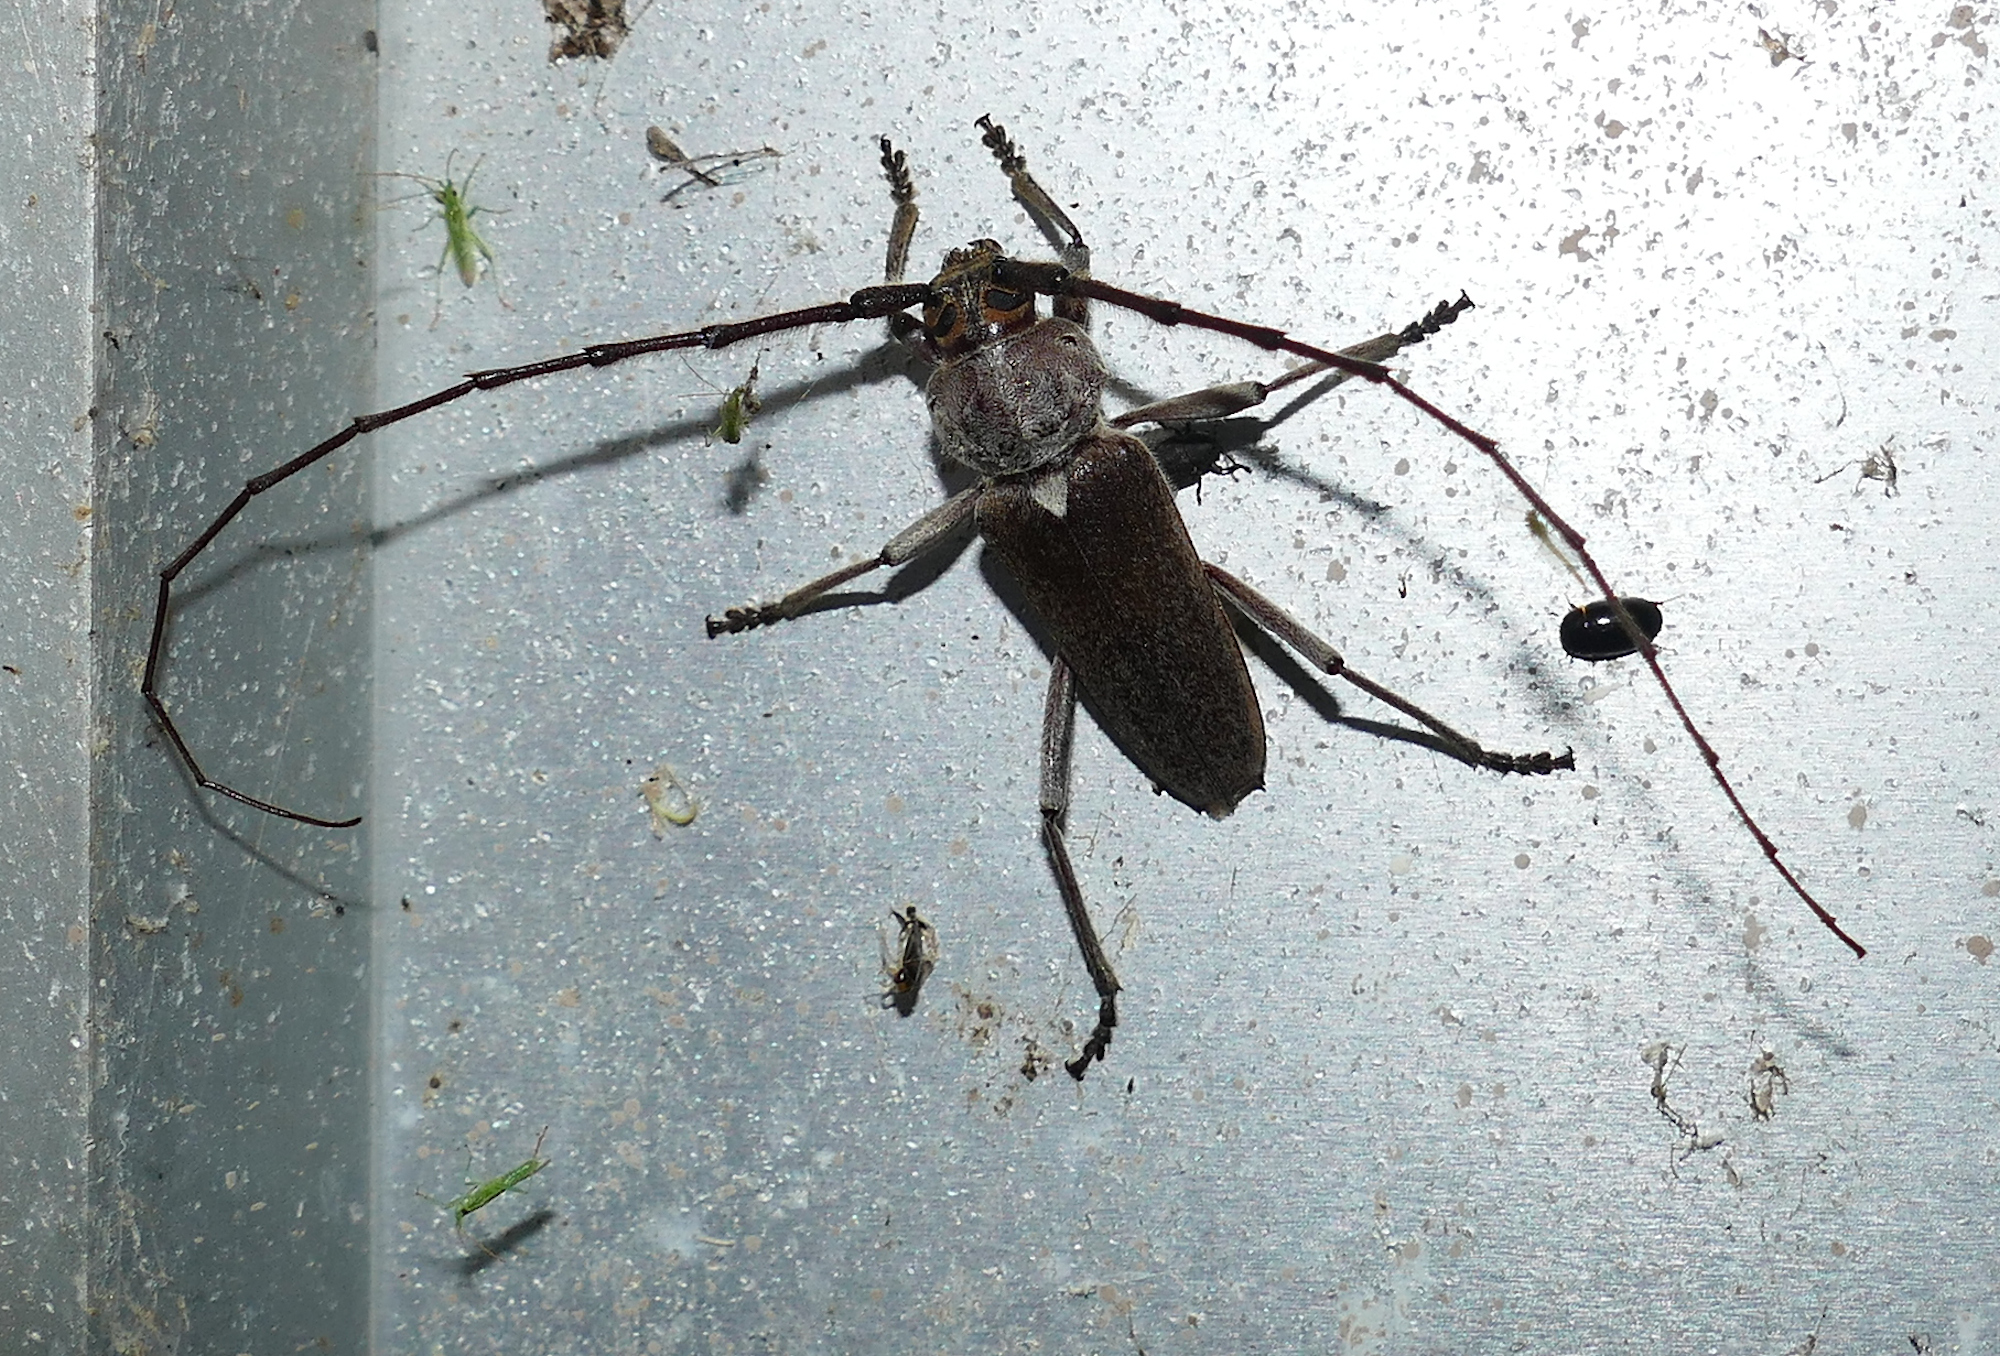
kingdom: Animalia
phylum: Arthropoda
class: Insecta
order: Coleoptera
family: Cerambycidae
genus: Gnaphalodes
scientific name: Gnaphalodes trachyderoides
